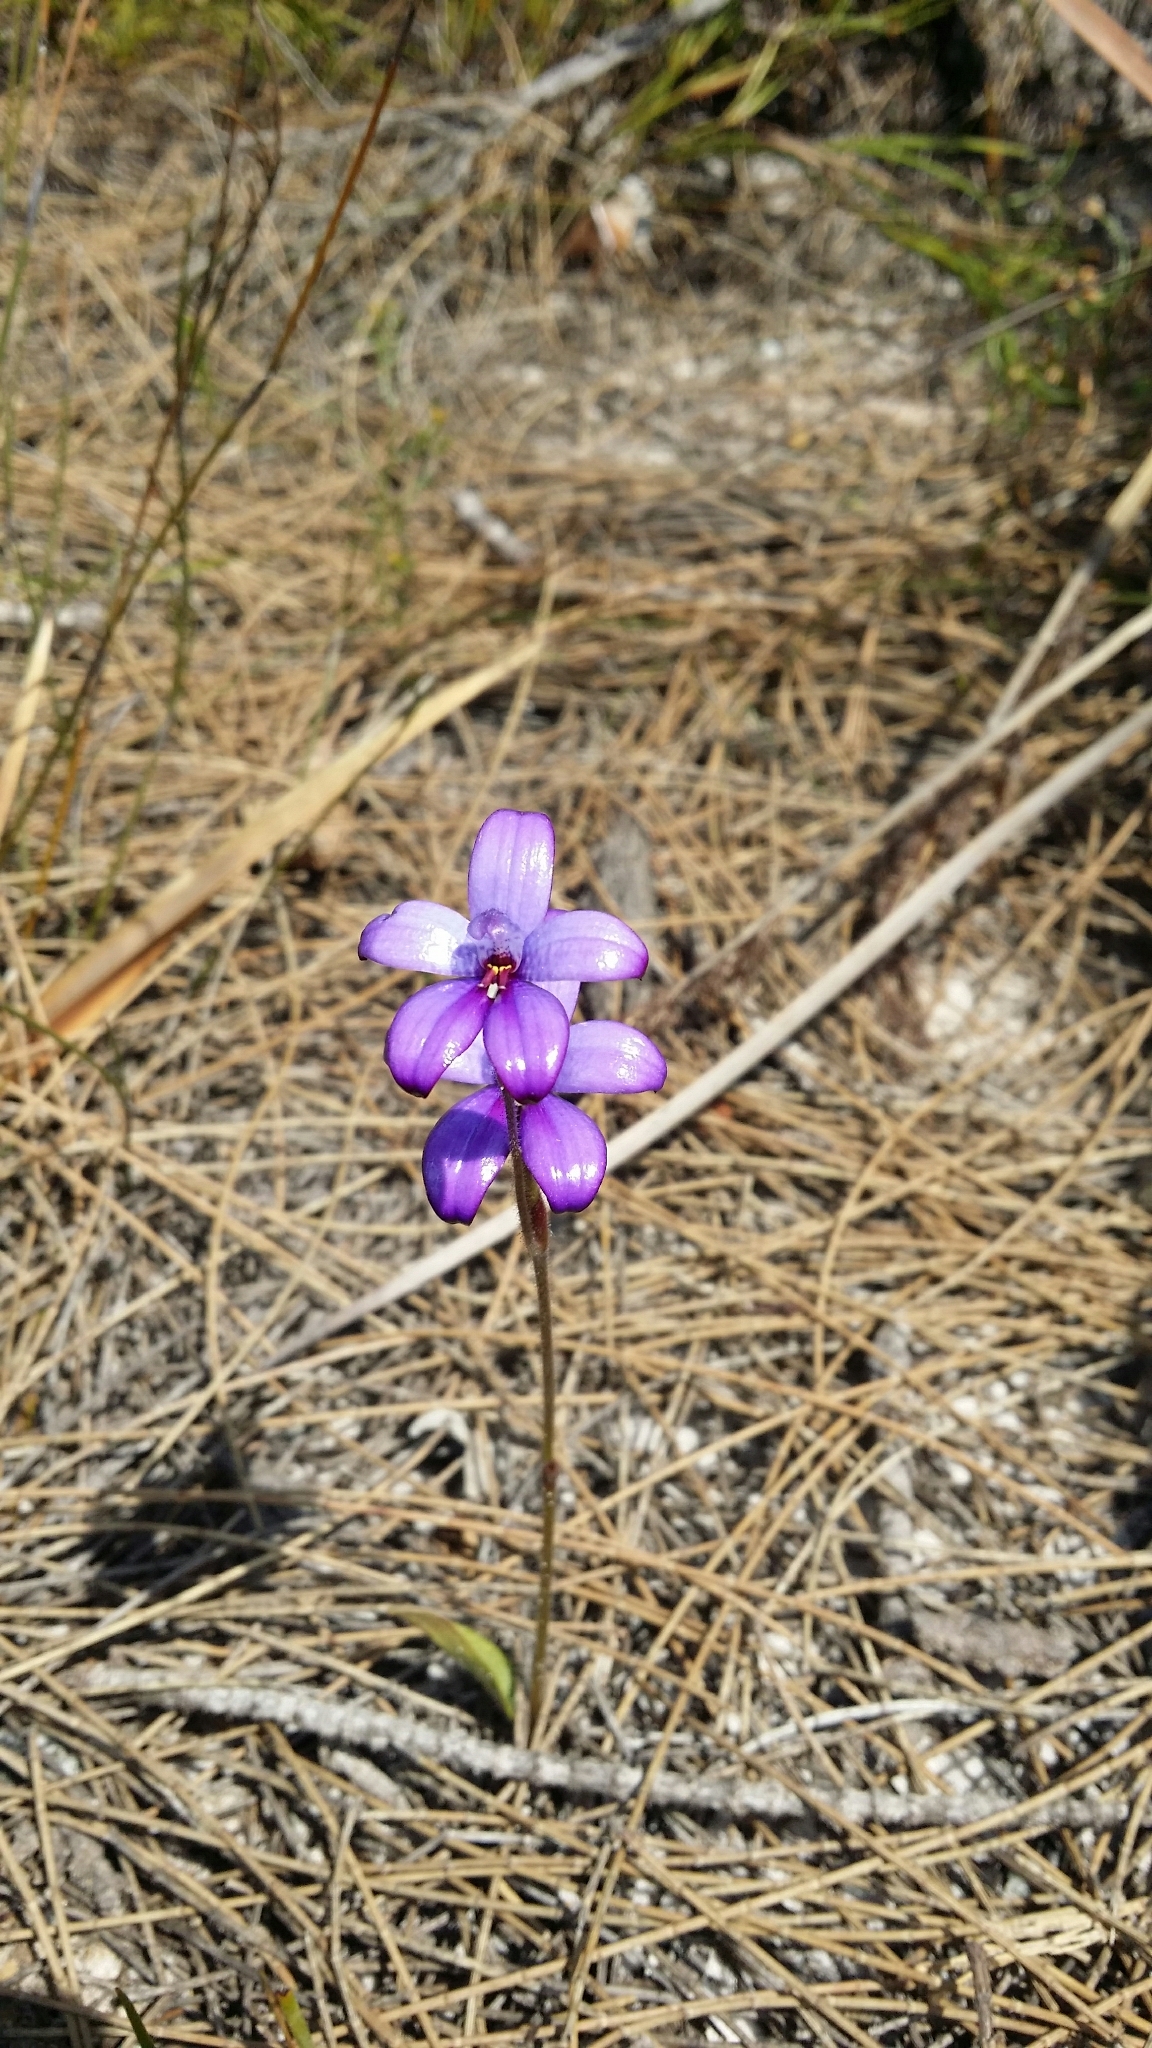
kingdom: Plantae
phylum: Tracheophyta
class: Liliopsida
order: Asparagales
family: Orchidaceae
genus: Caladenia
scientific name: Caladenia brunonis
